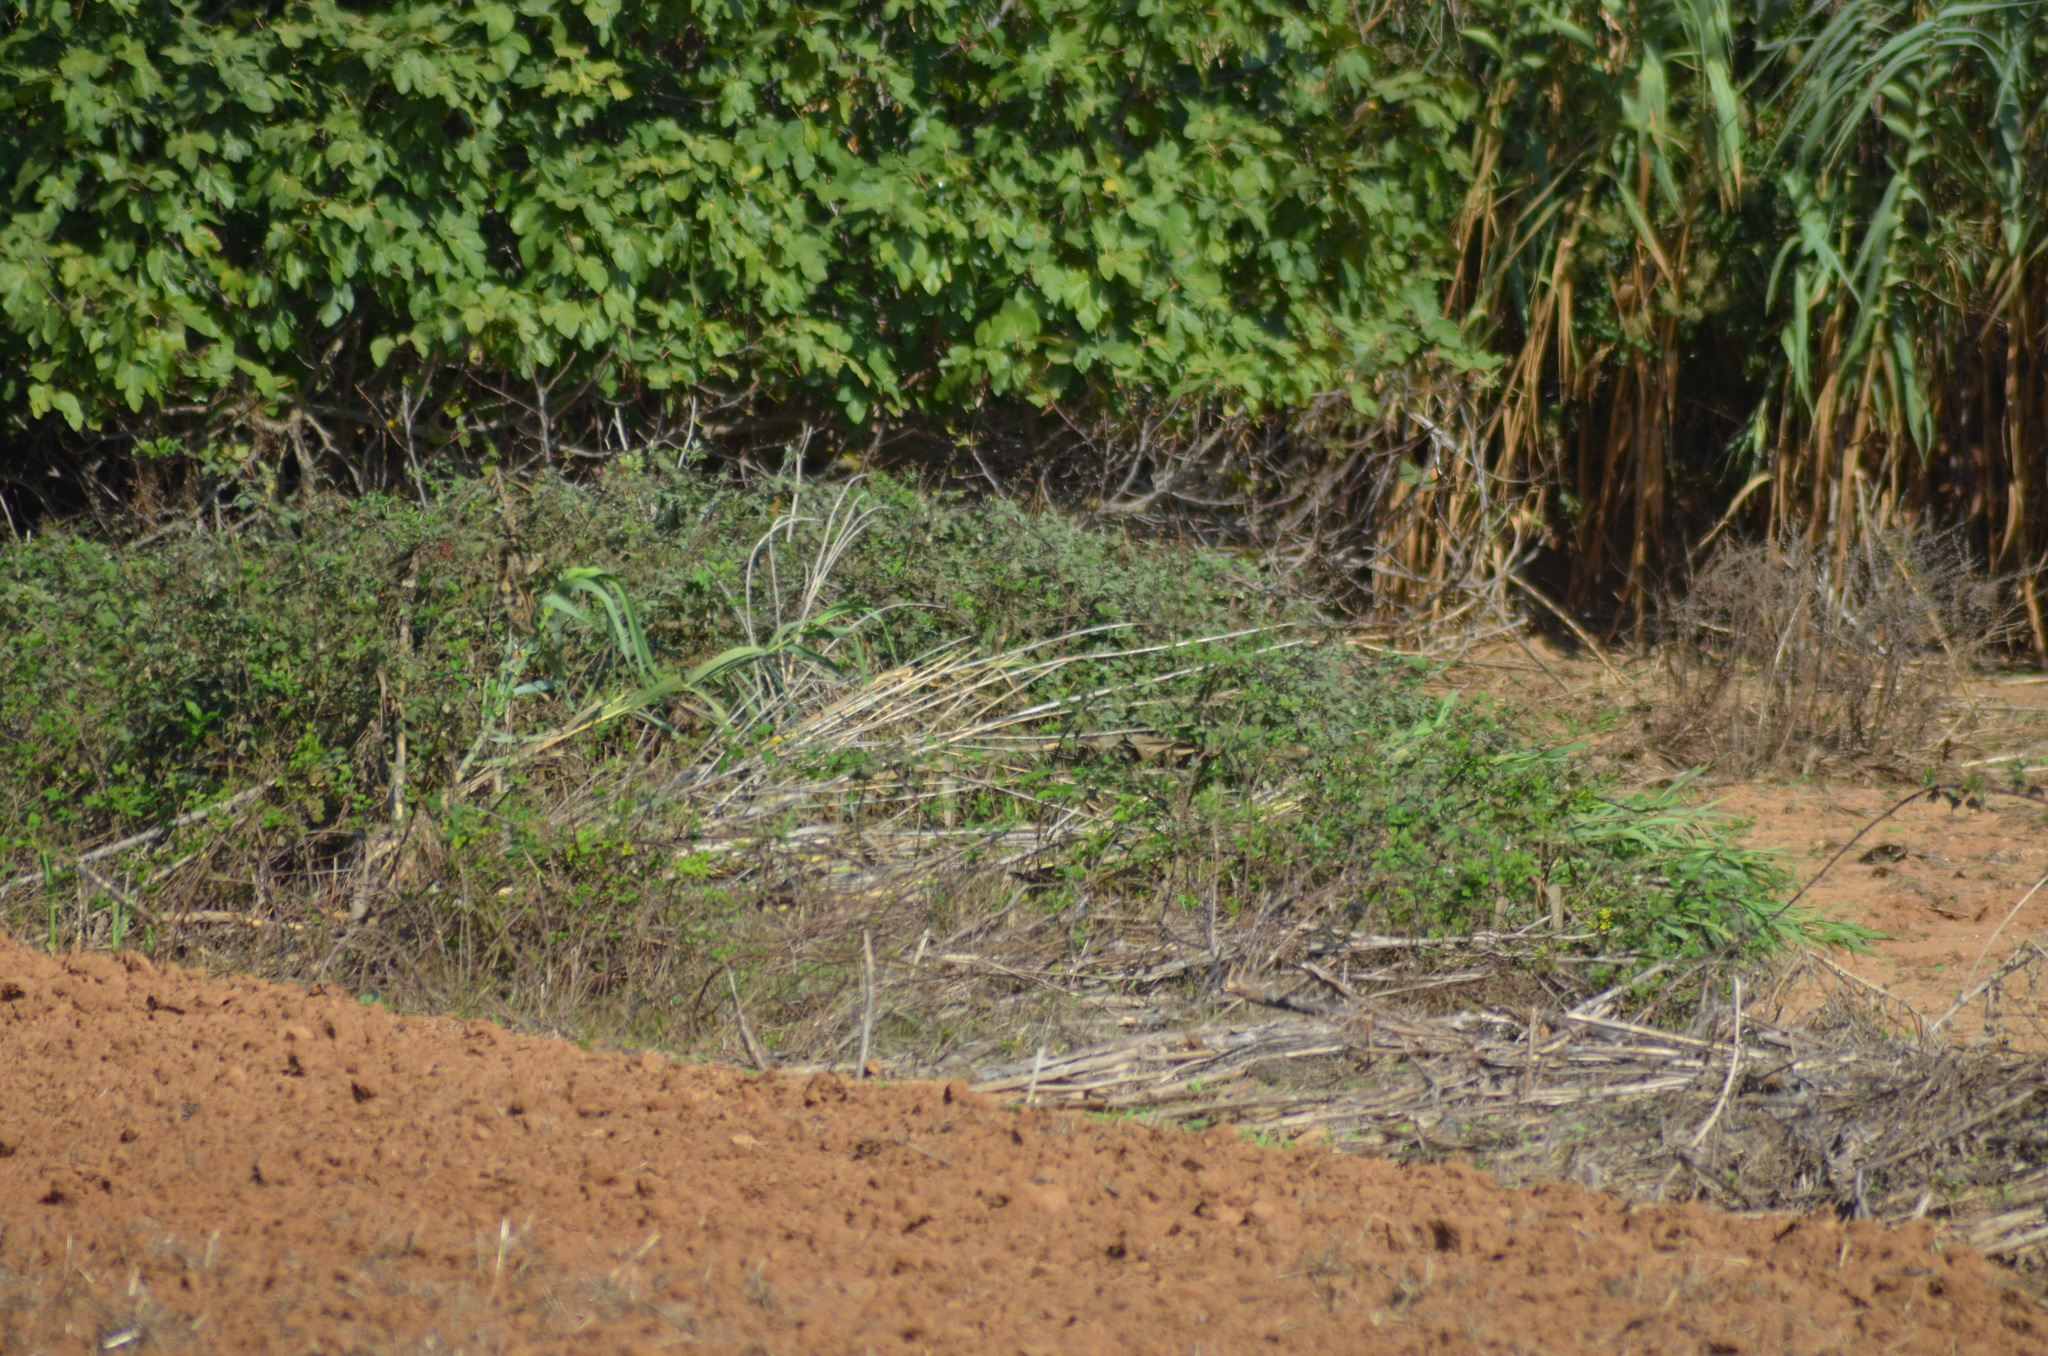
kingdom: Animalia
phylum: Chordata
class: Aves
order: Passeriformes
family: Muscicapidae
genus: Saxicola
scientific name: Saxicola rubicola
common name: European stonechat
